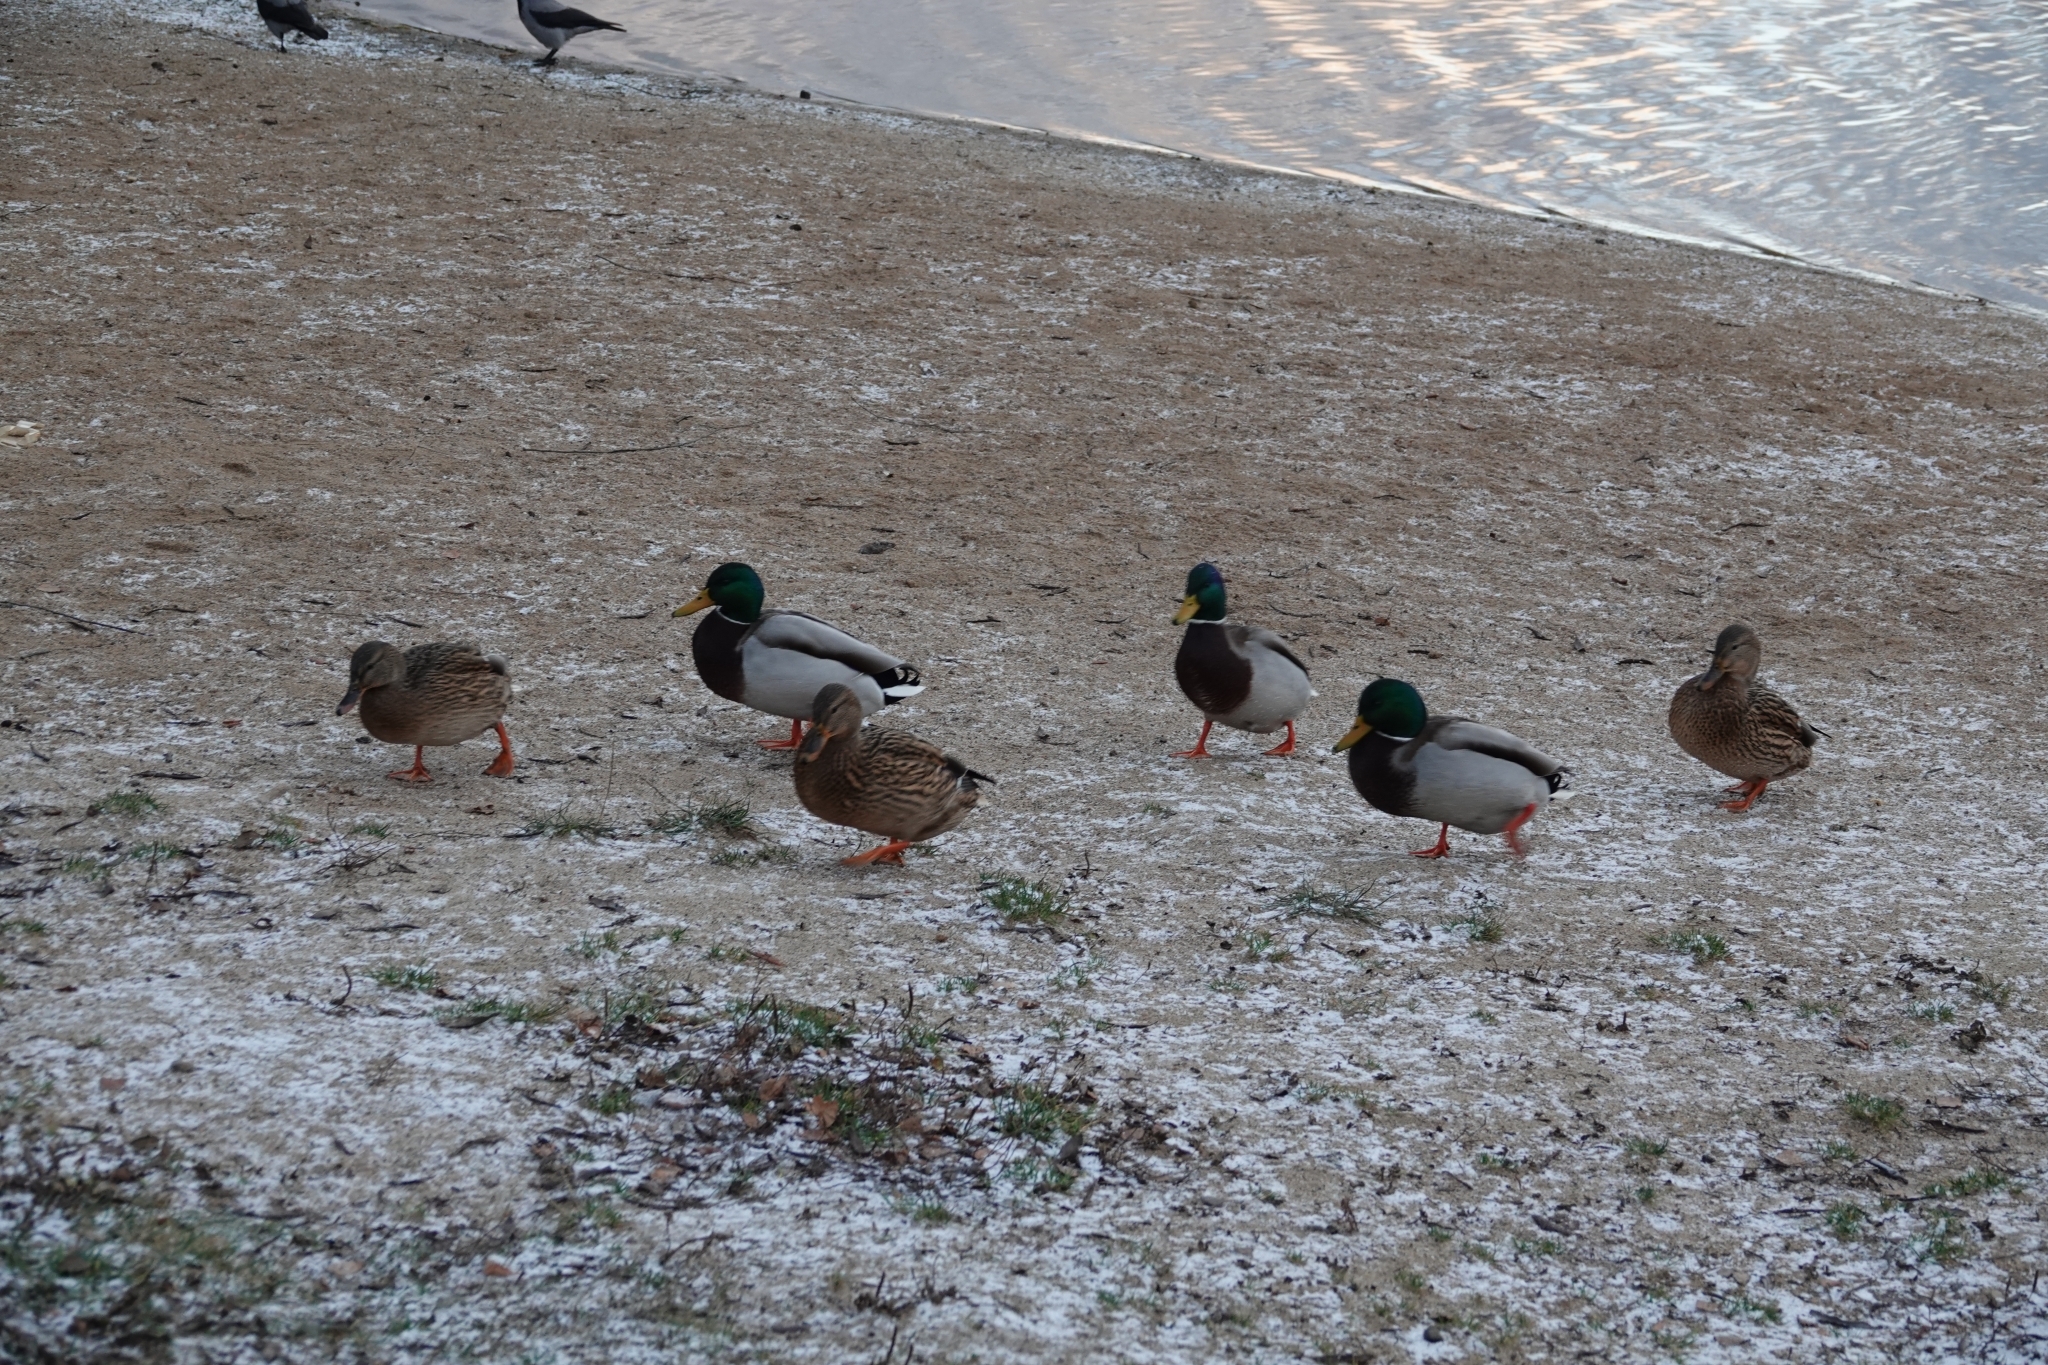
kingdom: Animalia
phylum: Chordata
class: Aves
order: Anseriformes
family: Anatidae
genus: Anas
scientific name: Anas platyrhynchos
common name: Mallard
